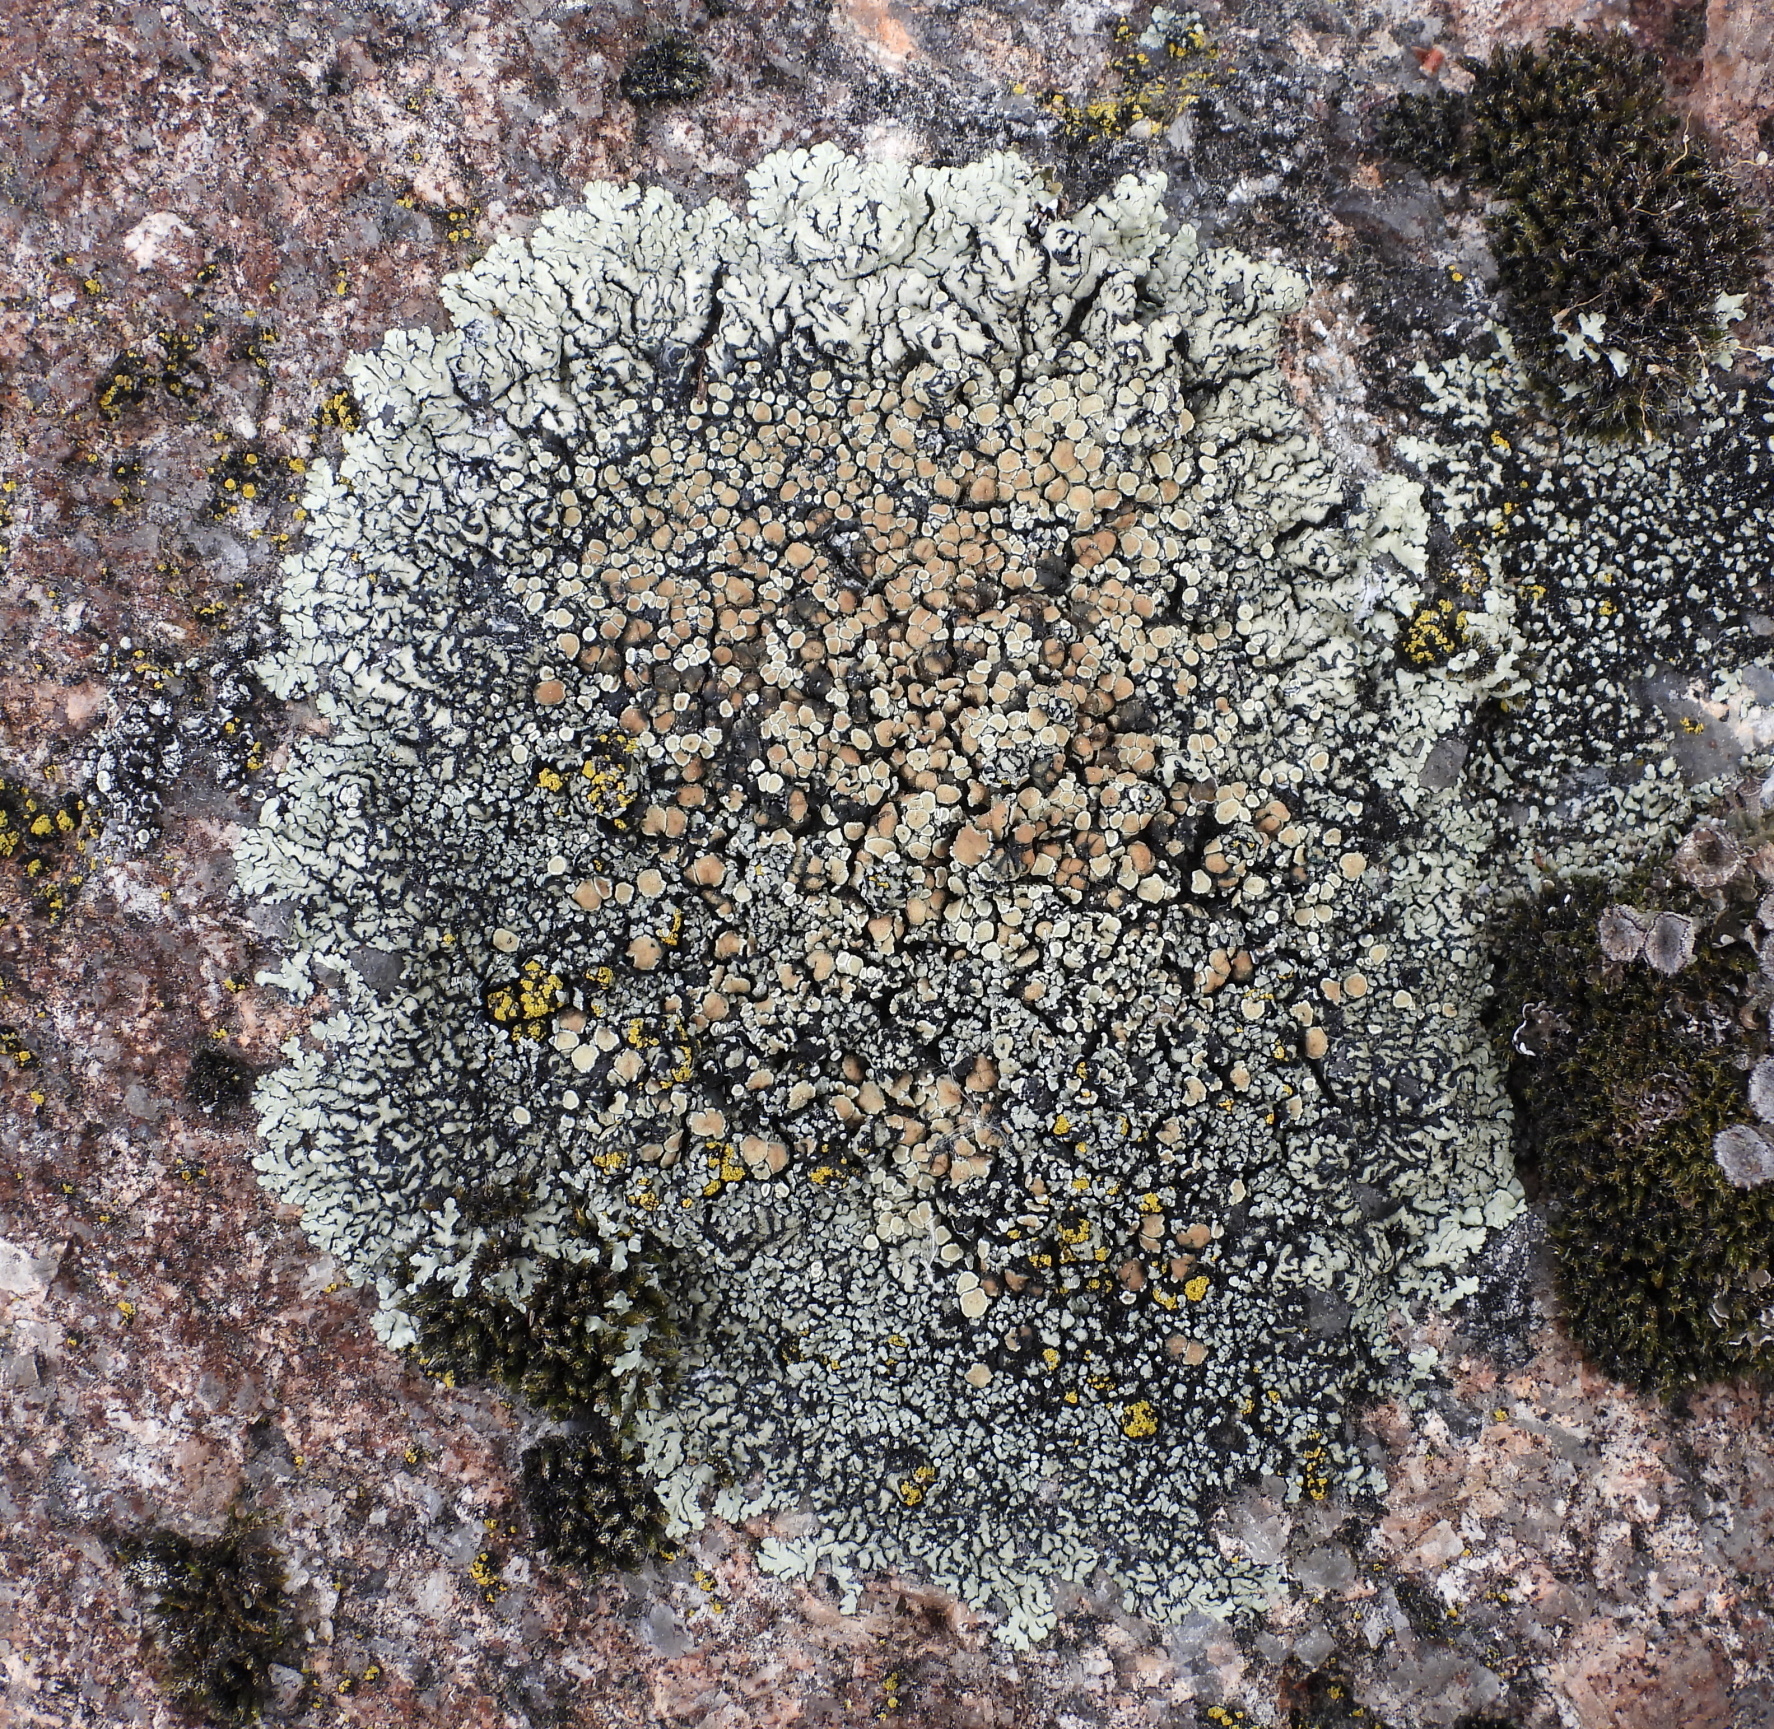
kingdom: Fungi
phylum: Ascomycota
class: Lecanoromycetes
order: Lecanorales
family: Lecanoraceae
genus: Protoparmeliopsis
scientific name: Protoparmeliopsis muralis
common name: Stonewall rim lichen
